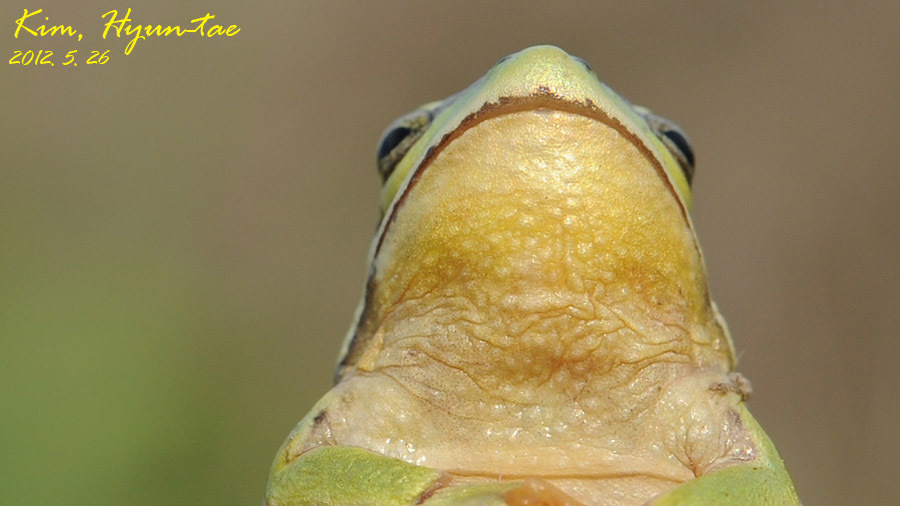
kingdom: Animalia
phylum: Chordata
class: Amphibia
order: Anura
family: Hylidae
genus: Dryophytes
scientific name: Dryophytes immaculatus
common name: North china treefrog
